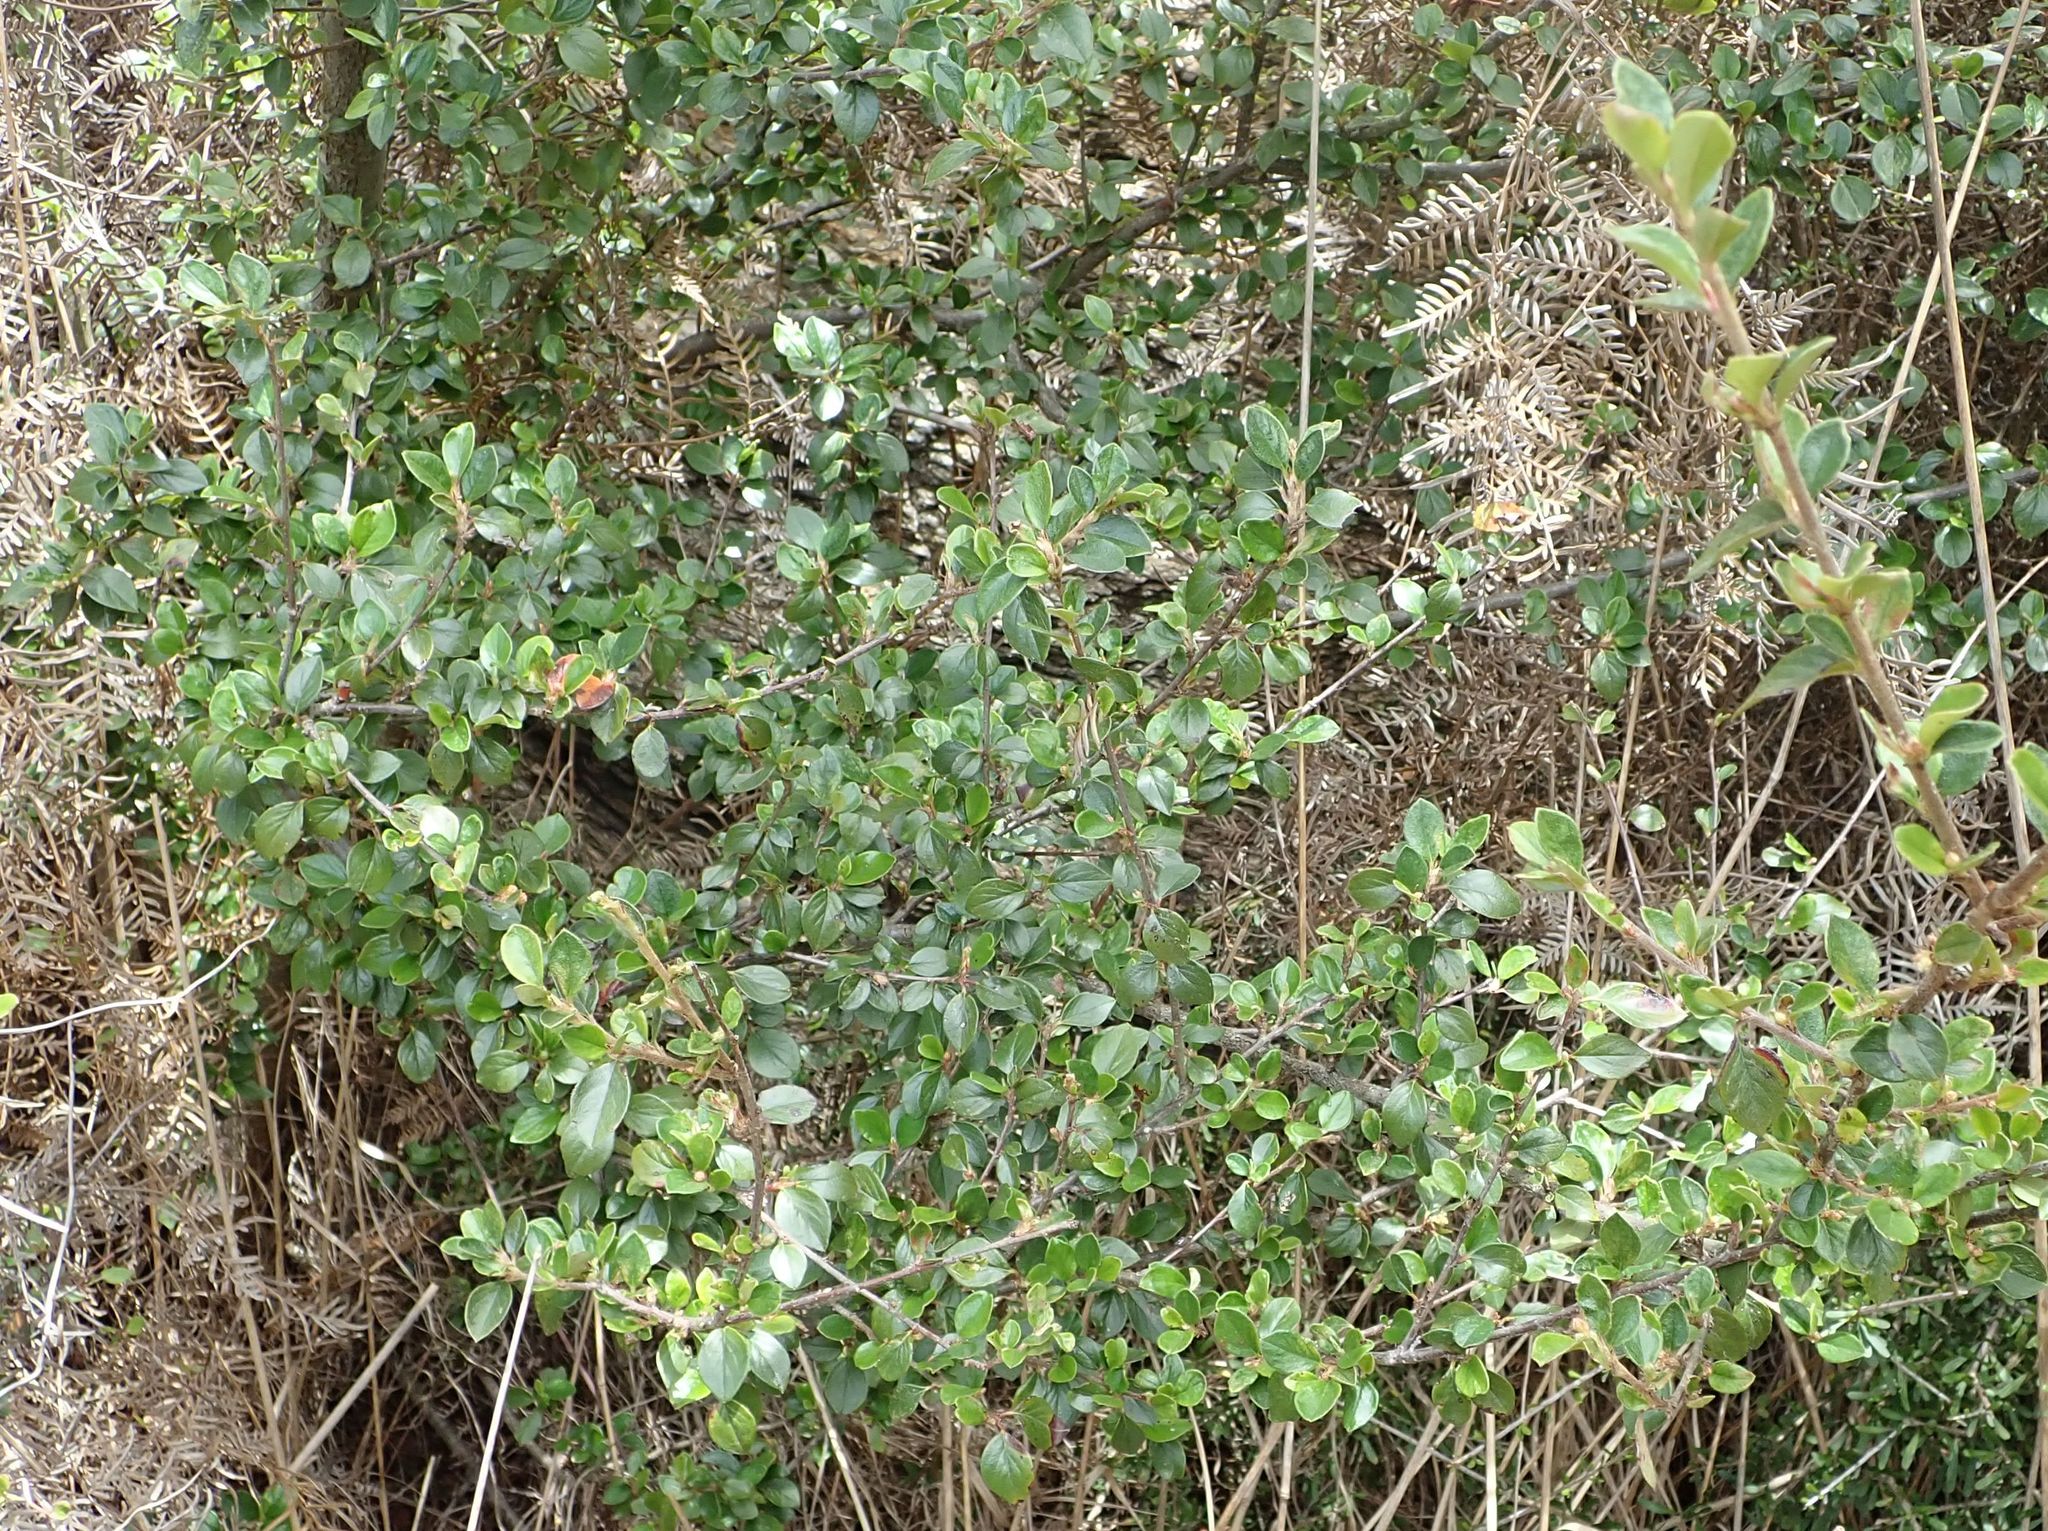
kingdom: Plantae
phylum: Tracheophyta
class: Magnoliopsida
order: Rosales
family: Rosaceae
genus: Cotoneaster
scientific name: Cotoneaster simonsii
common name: Himalayan cotoneaster
